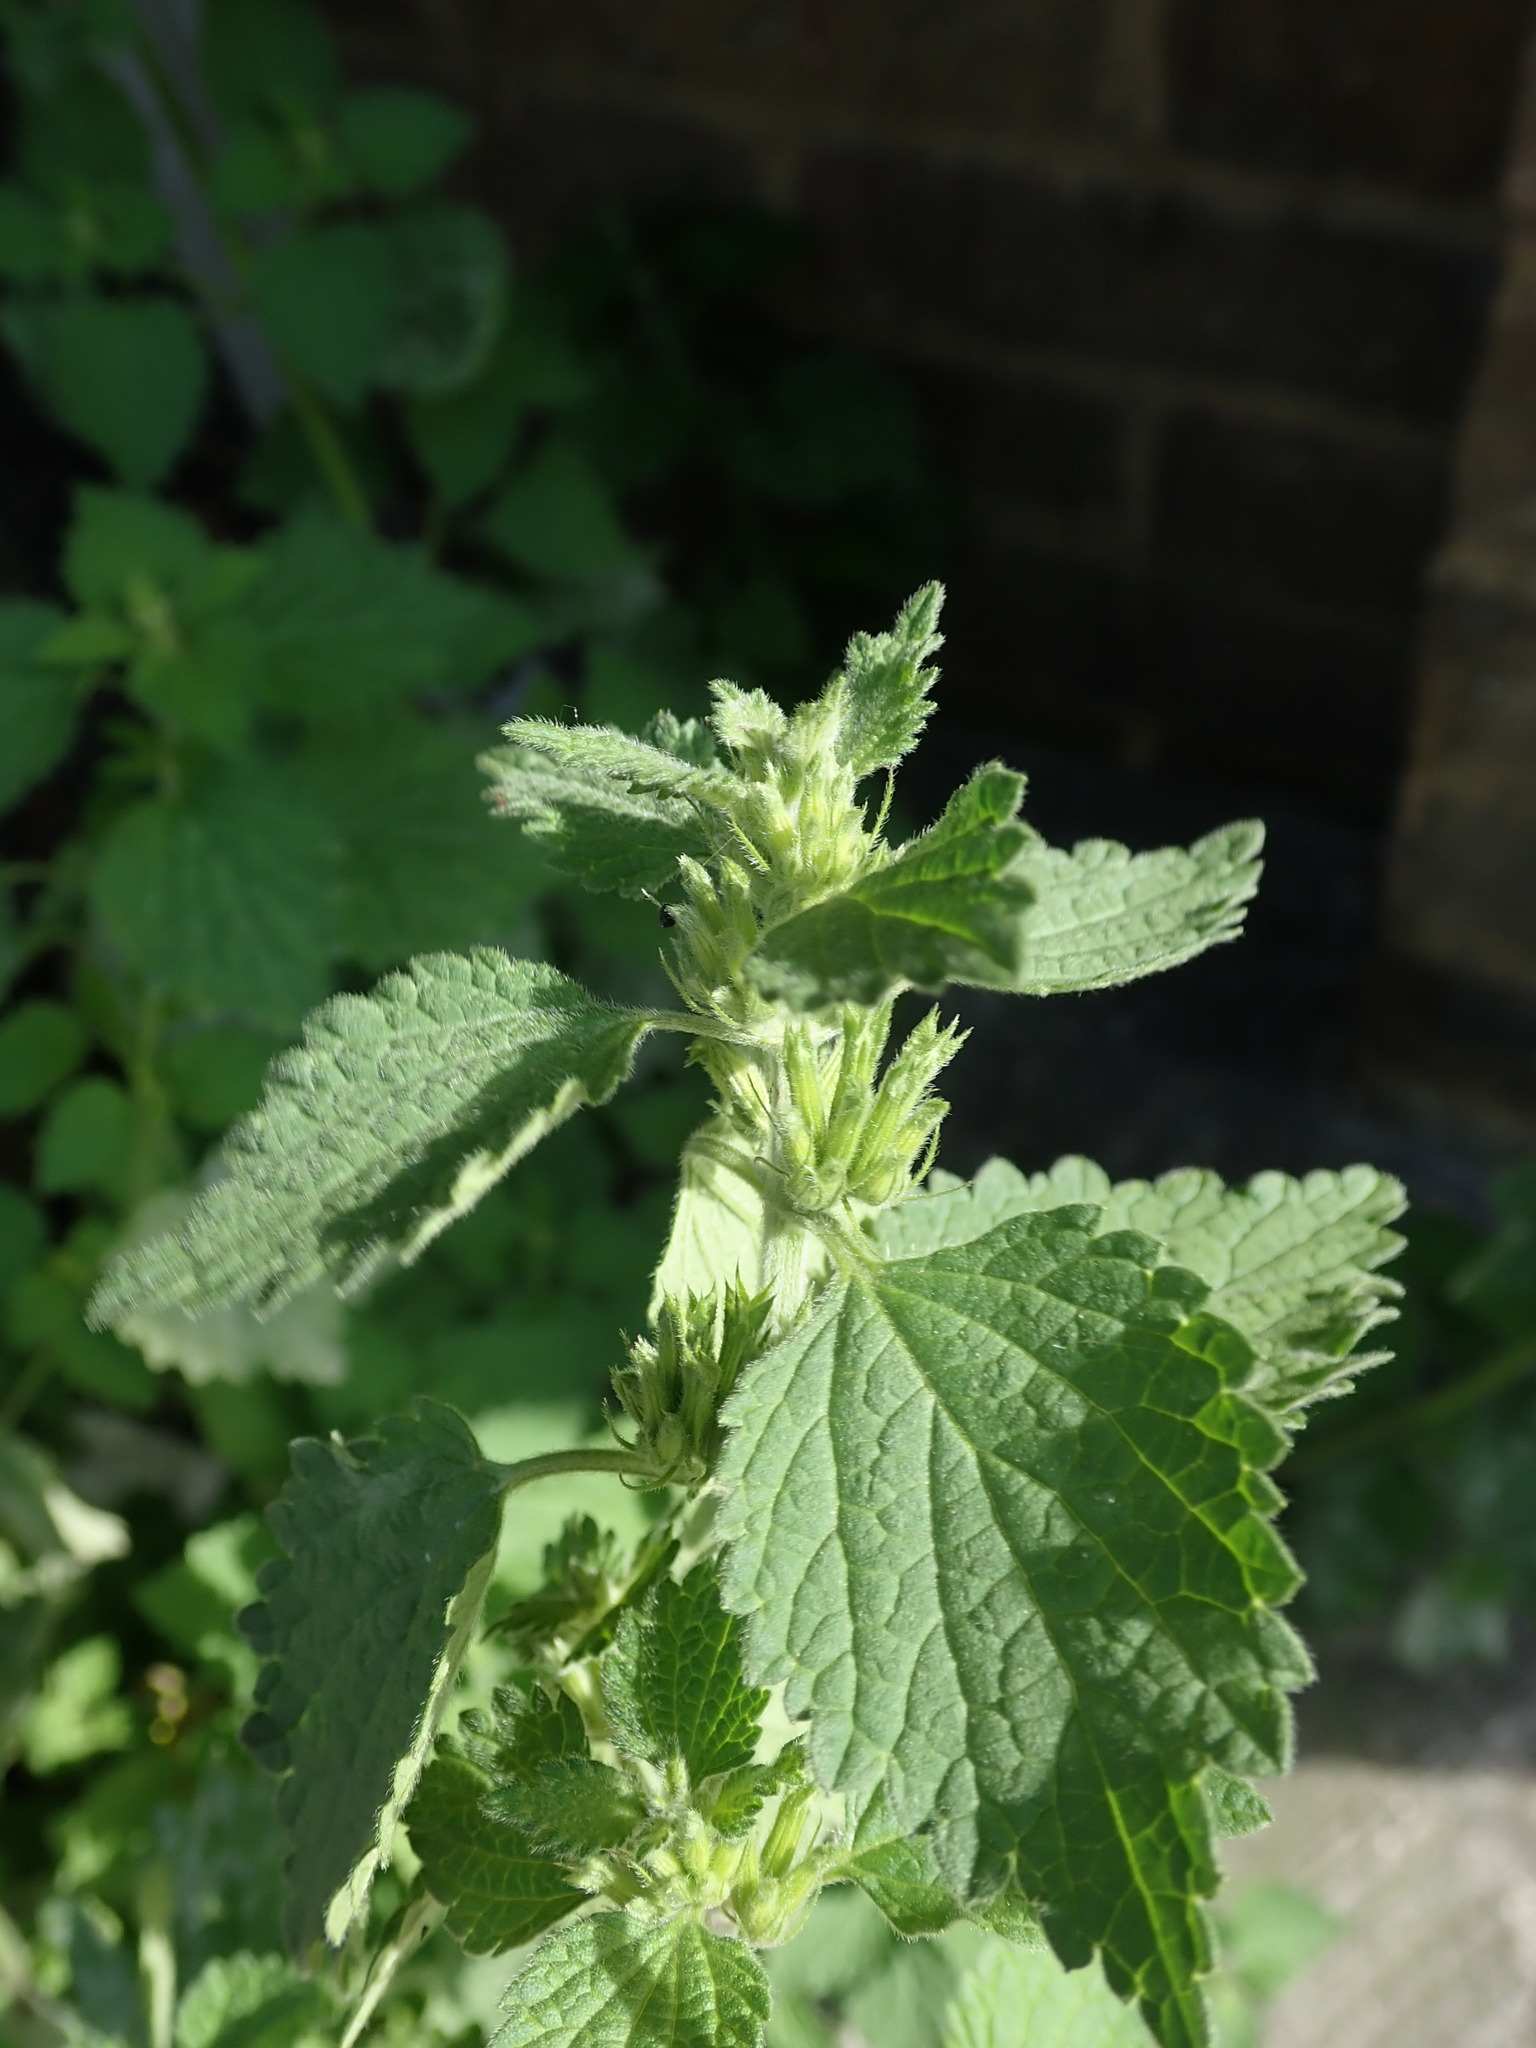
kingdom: Plantae
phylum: Tracheophyta
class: Magnoliopsida
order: Lamiales
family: Lamiaceae
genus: Ballota
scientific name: Ballota nigra
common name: Black horehound
